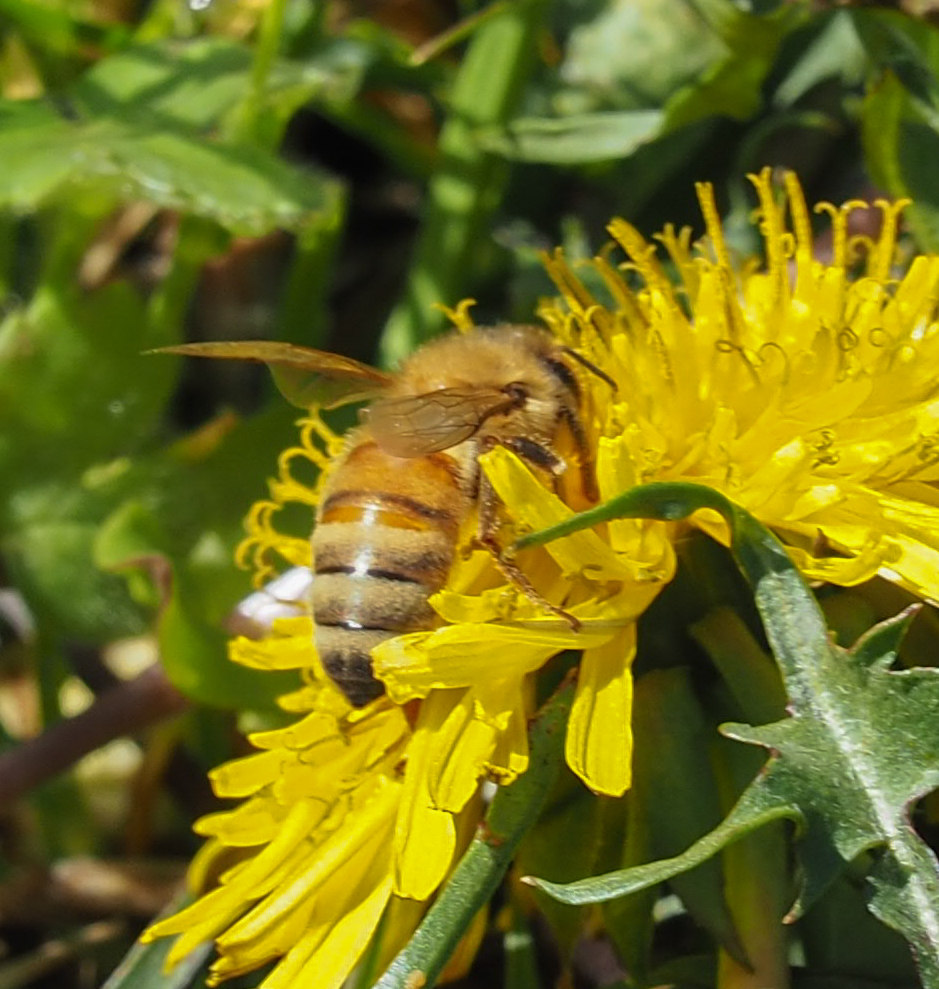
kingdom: Animalia
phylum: Arthropoda
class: Insecta
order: Hymenoptera
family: Apidae
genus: Apis
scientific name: Apis mellifera
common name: Honey bee
